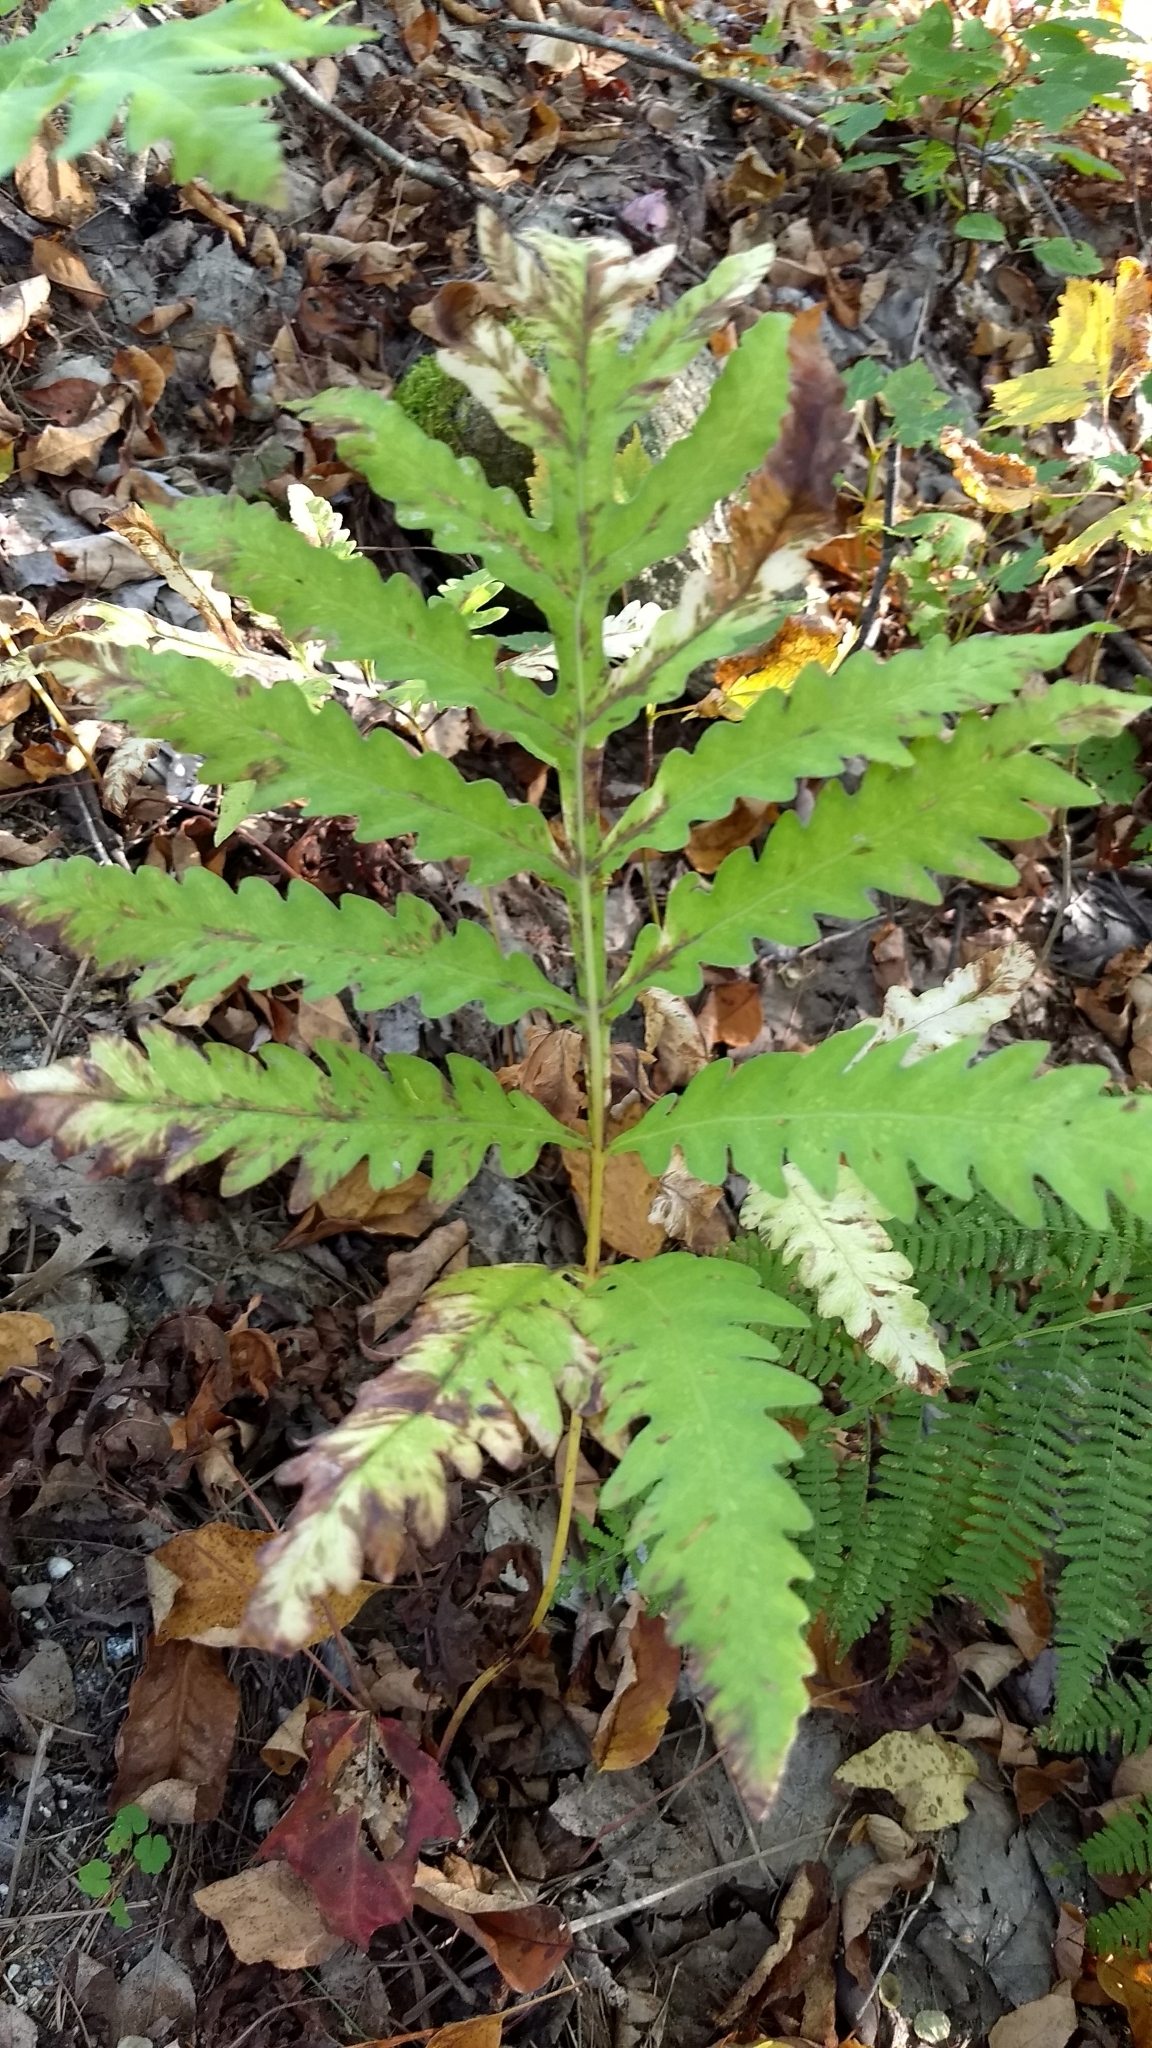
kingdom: Plantae
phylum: Tracheophyta
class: Polypodiopsida
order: Polypodiales
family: Onocleaceae
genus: Onoclea
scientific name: Onoclea sensibilis
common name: Sensitive fern
